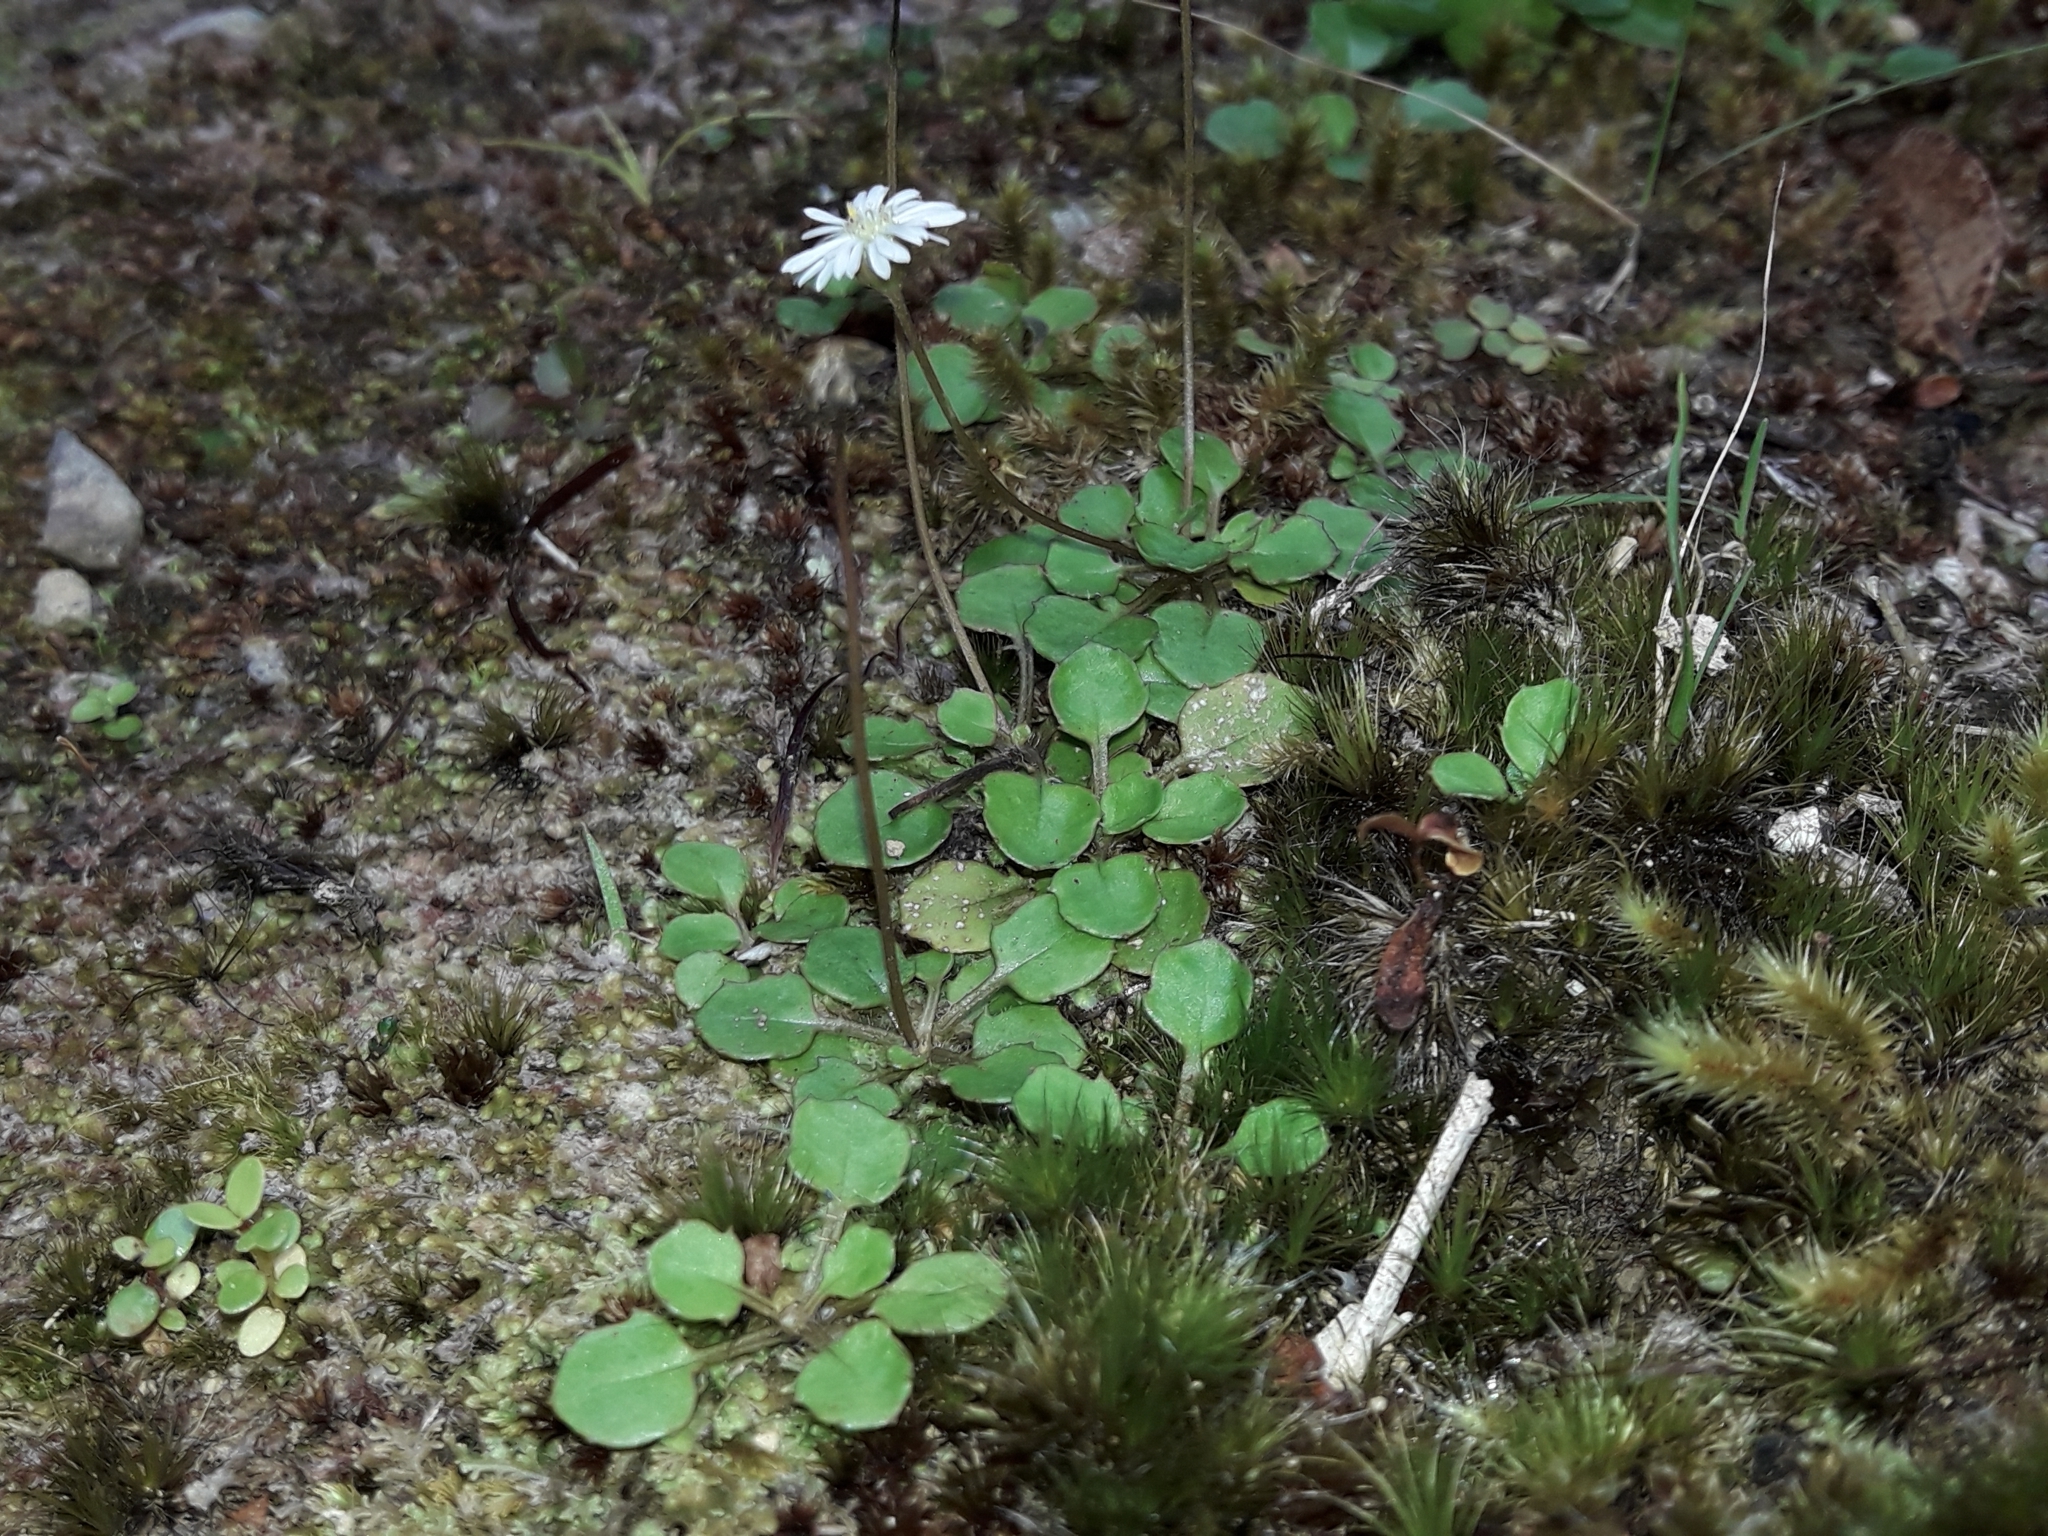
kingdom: Plantae
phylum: Tracheophyta
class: Magnoliopsida
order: Asterales
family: Asteraceae
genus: Lagenophora
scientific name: Lagenophora pumila
